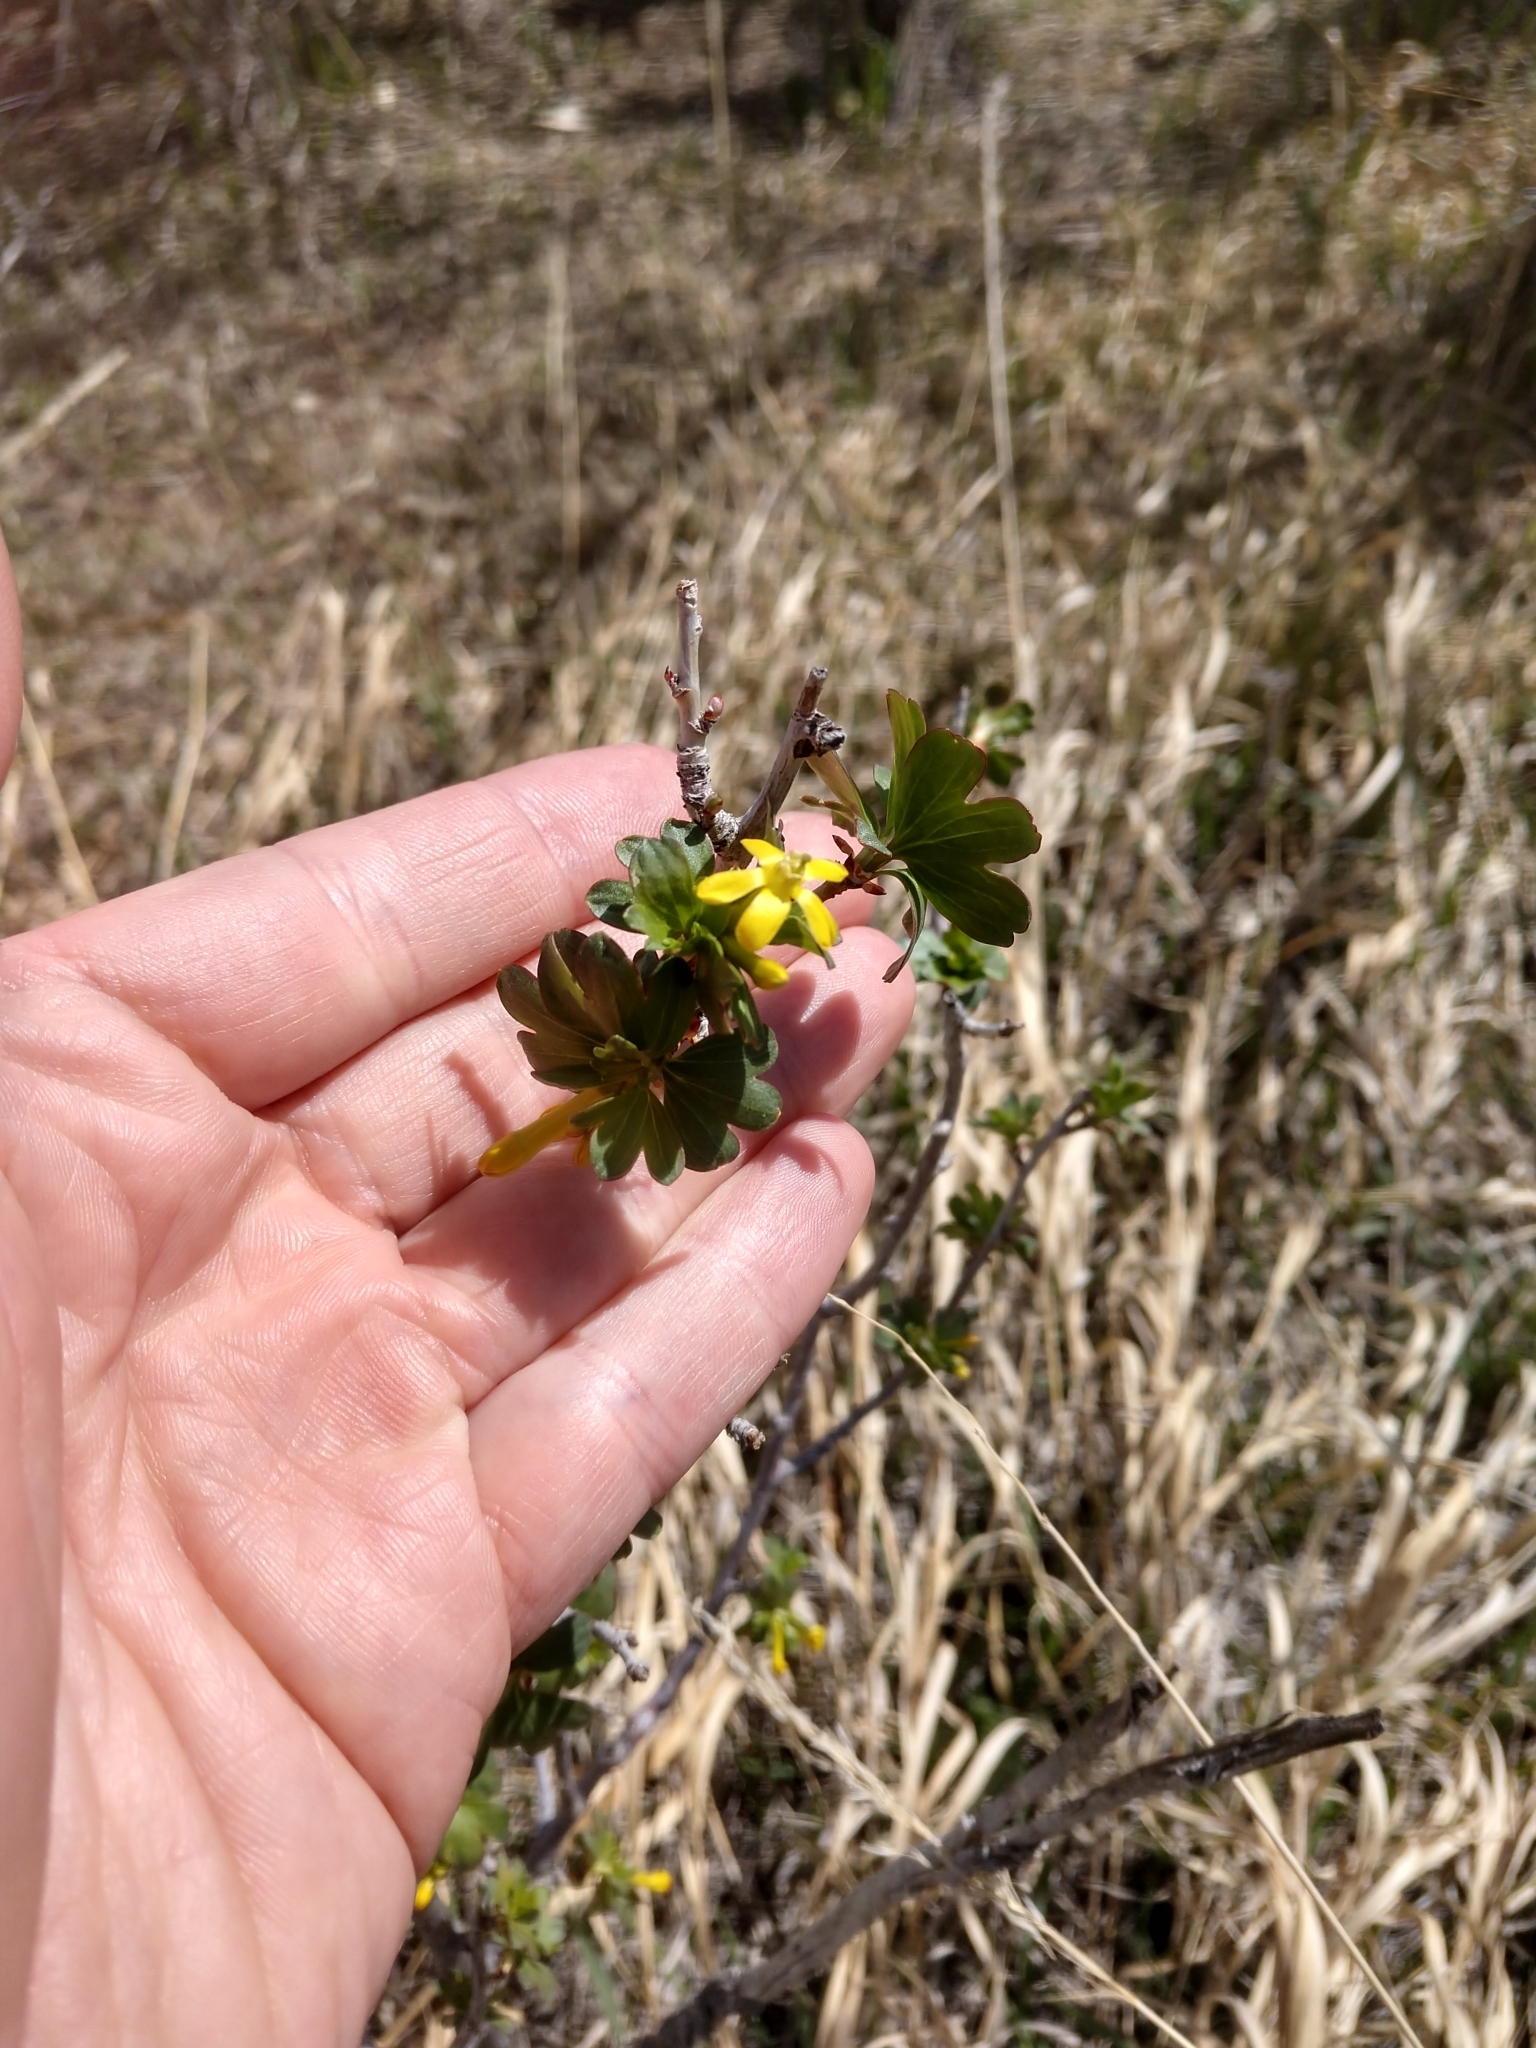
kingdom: Plantae
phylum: Tracheophyta
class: Magnoliopsida
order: Saxifragales
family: Grossulariaceae
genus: Ribes
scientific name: Ribes aureum
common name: Golden currant
